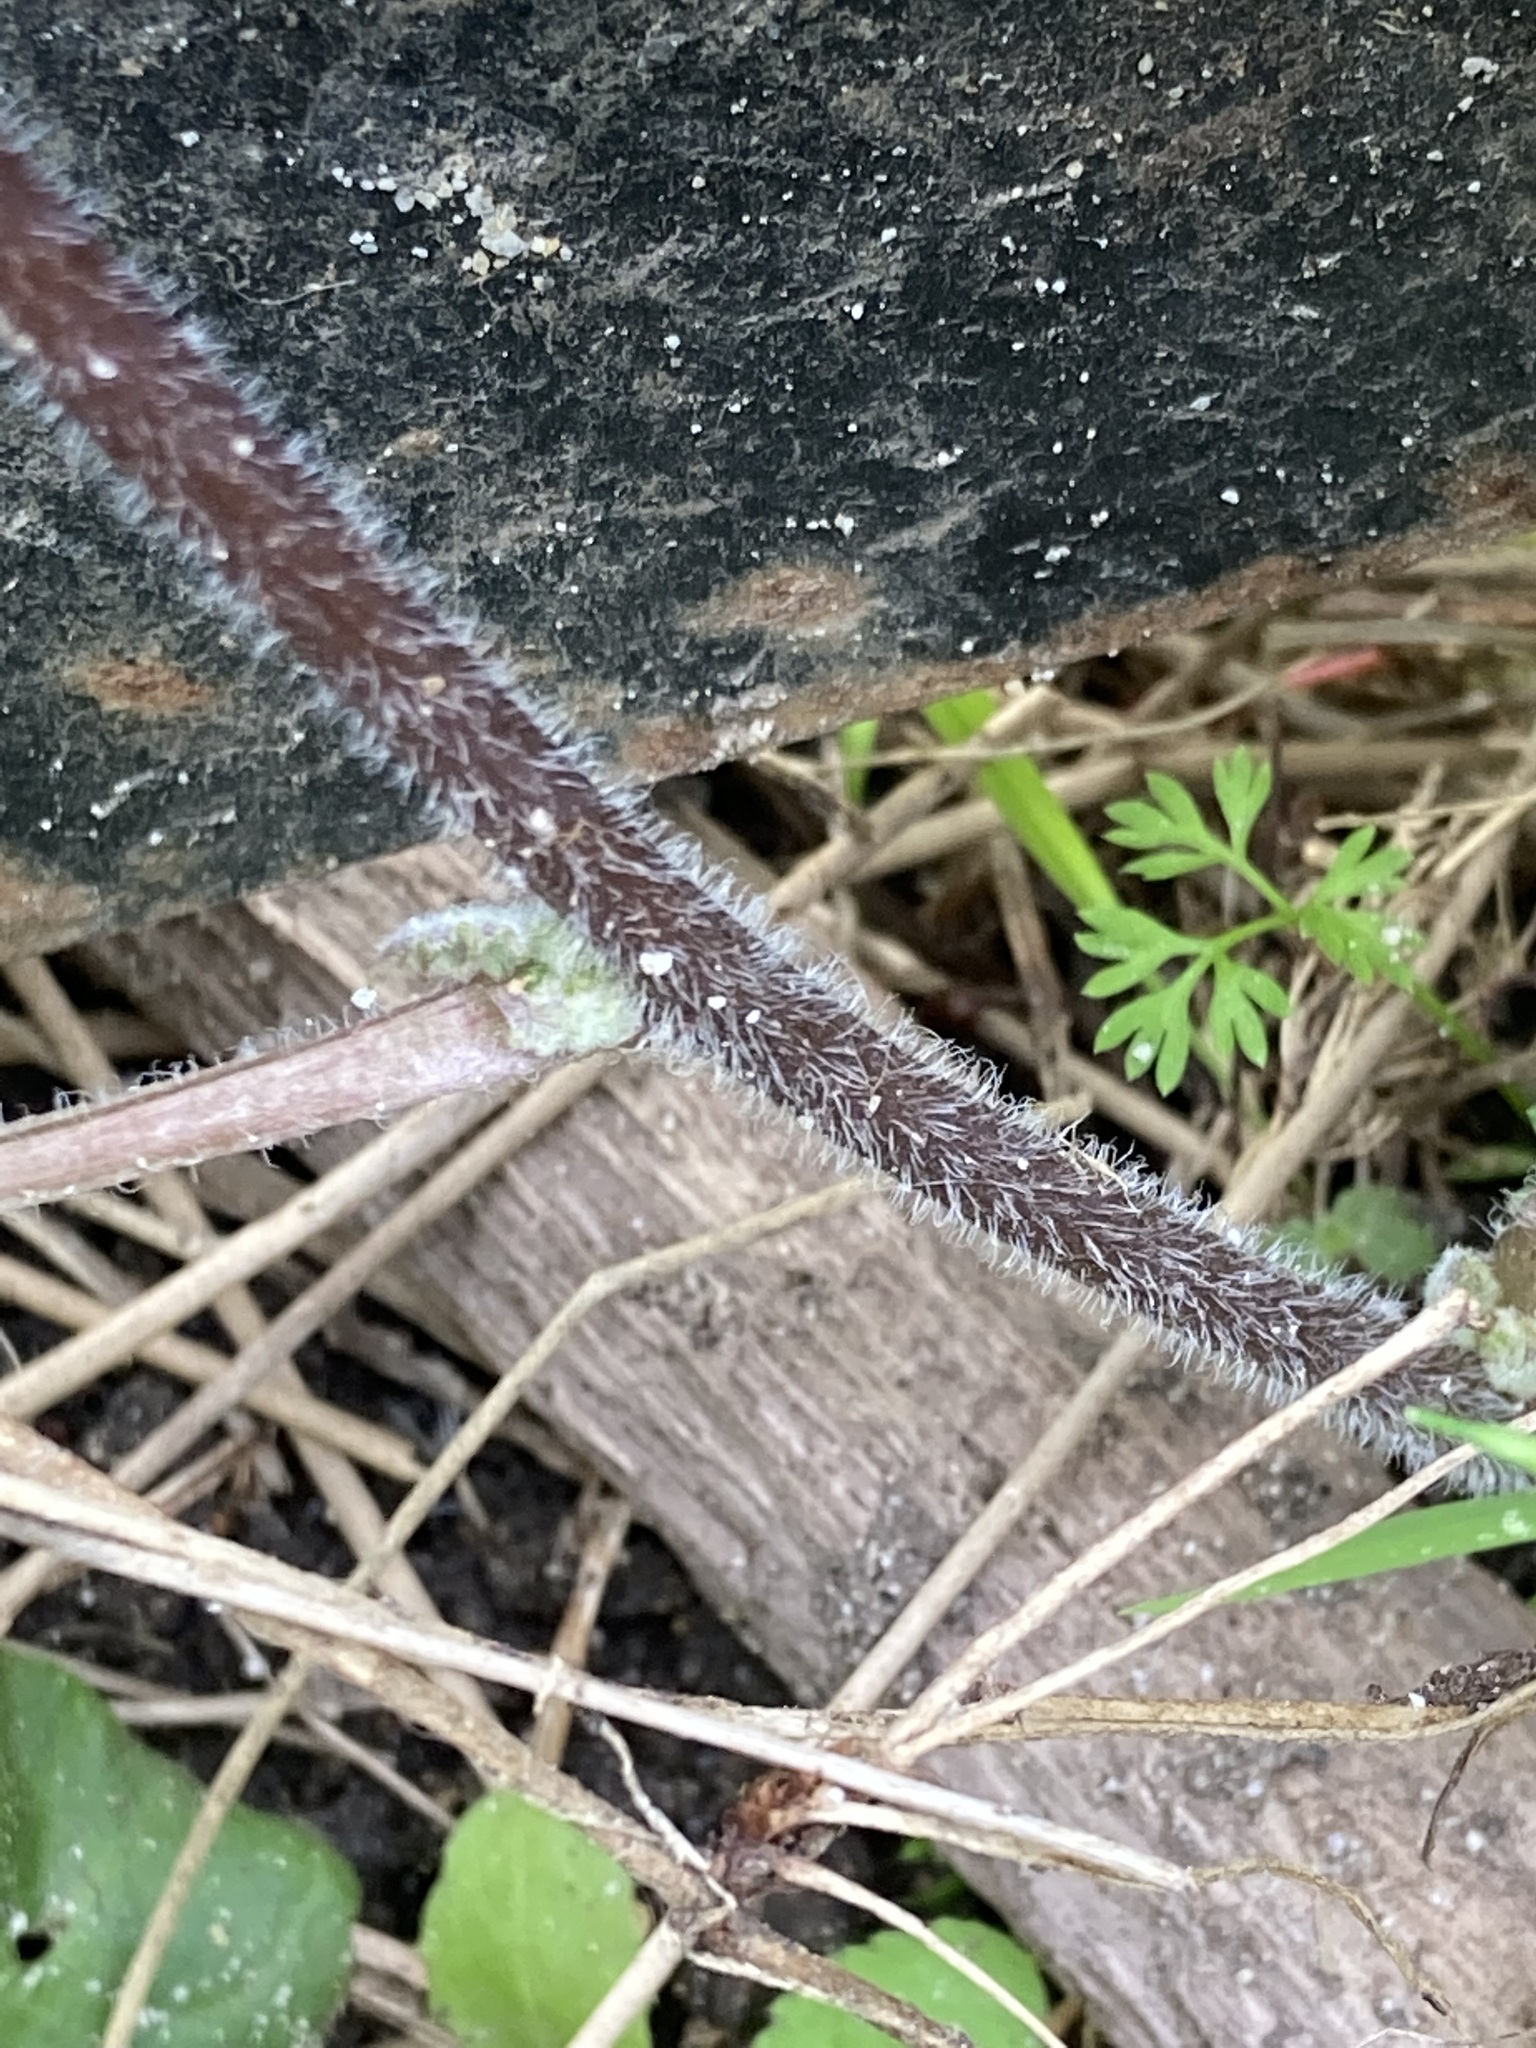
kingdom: Plantae
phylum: Tracheophyta
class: Magnoliopsida
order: Asterales
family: Asteraceae
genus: Youngia
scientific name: Youngia japonica
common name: Oriental false hawksbeard
